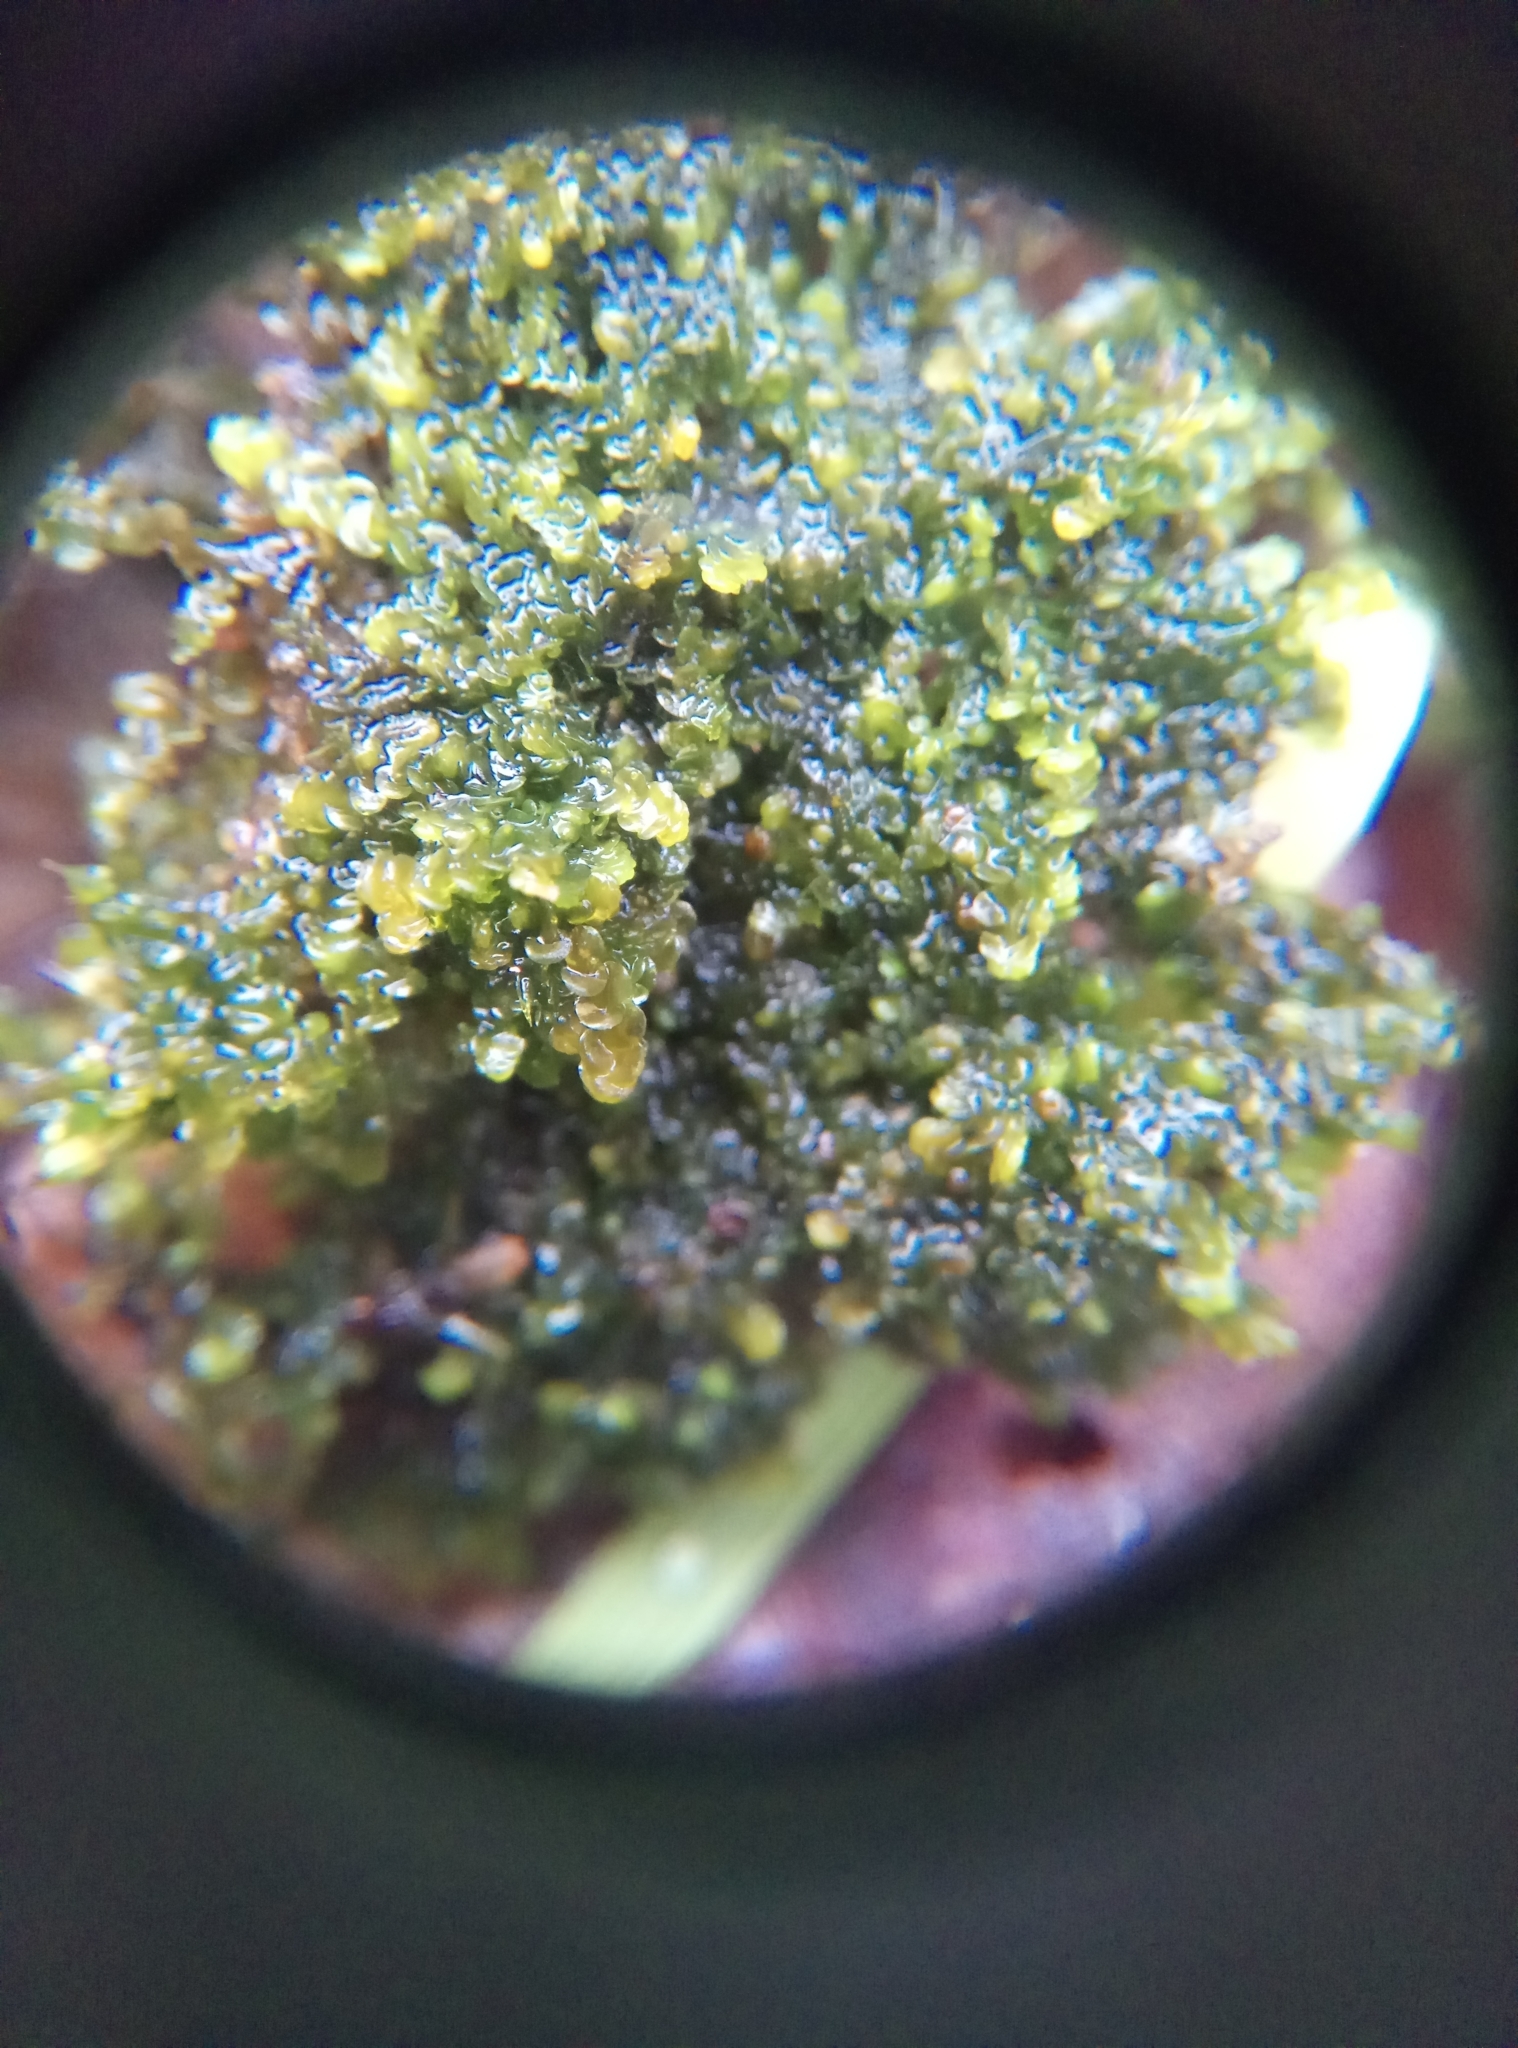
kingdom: Plantae
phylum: Marchantiophyta
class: Jungermanniopsida
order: Porellales
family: Frullaniaceae
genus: Frullania
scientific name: Frullania dilatata
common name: Dilated scalewort
